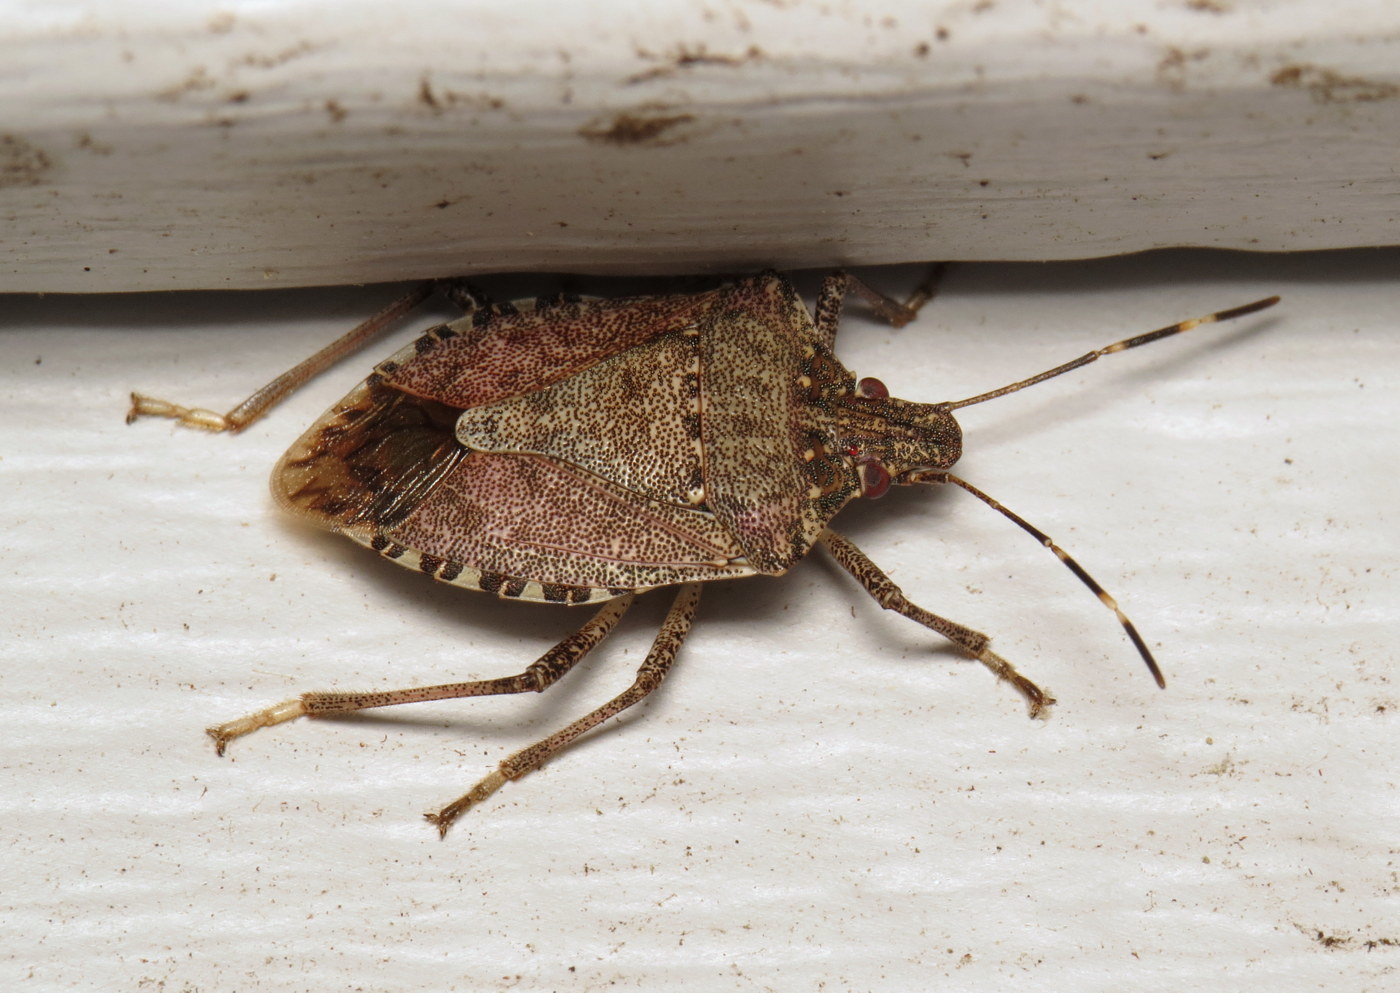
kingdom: Animalia
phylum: Arthropoda
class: Insecta
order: Hemiptera
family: Pentatomidae
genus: Halyomorpha
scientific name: Halyomorpha halys
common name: Brown marmorated stink bug
